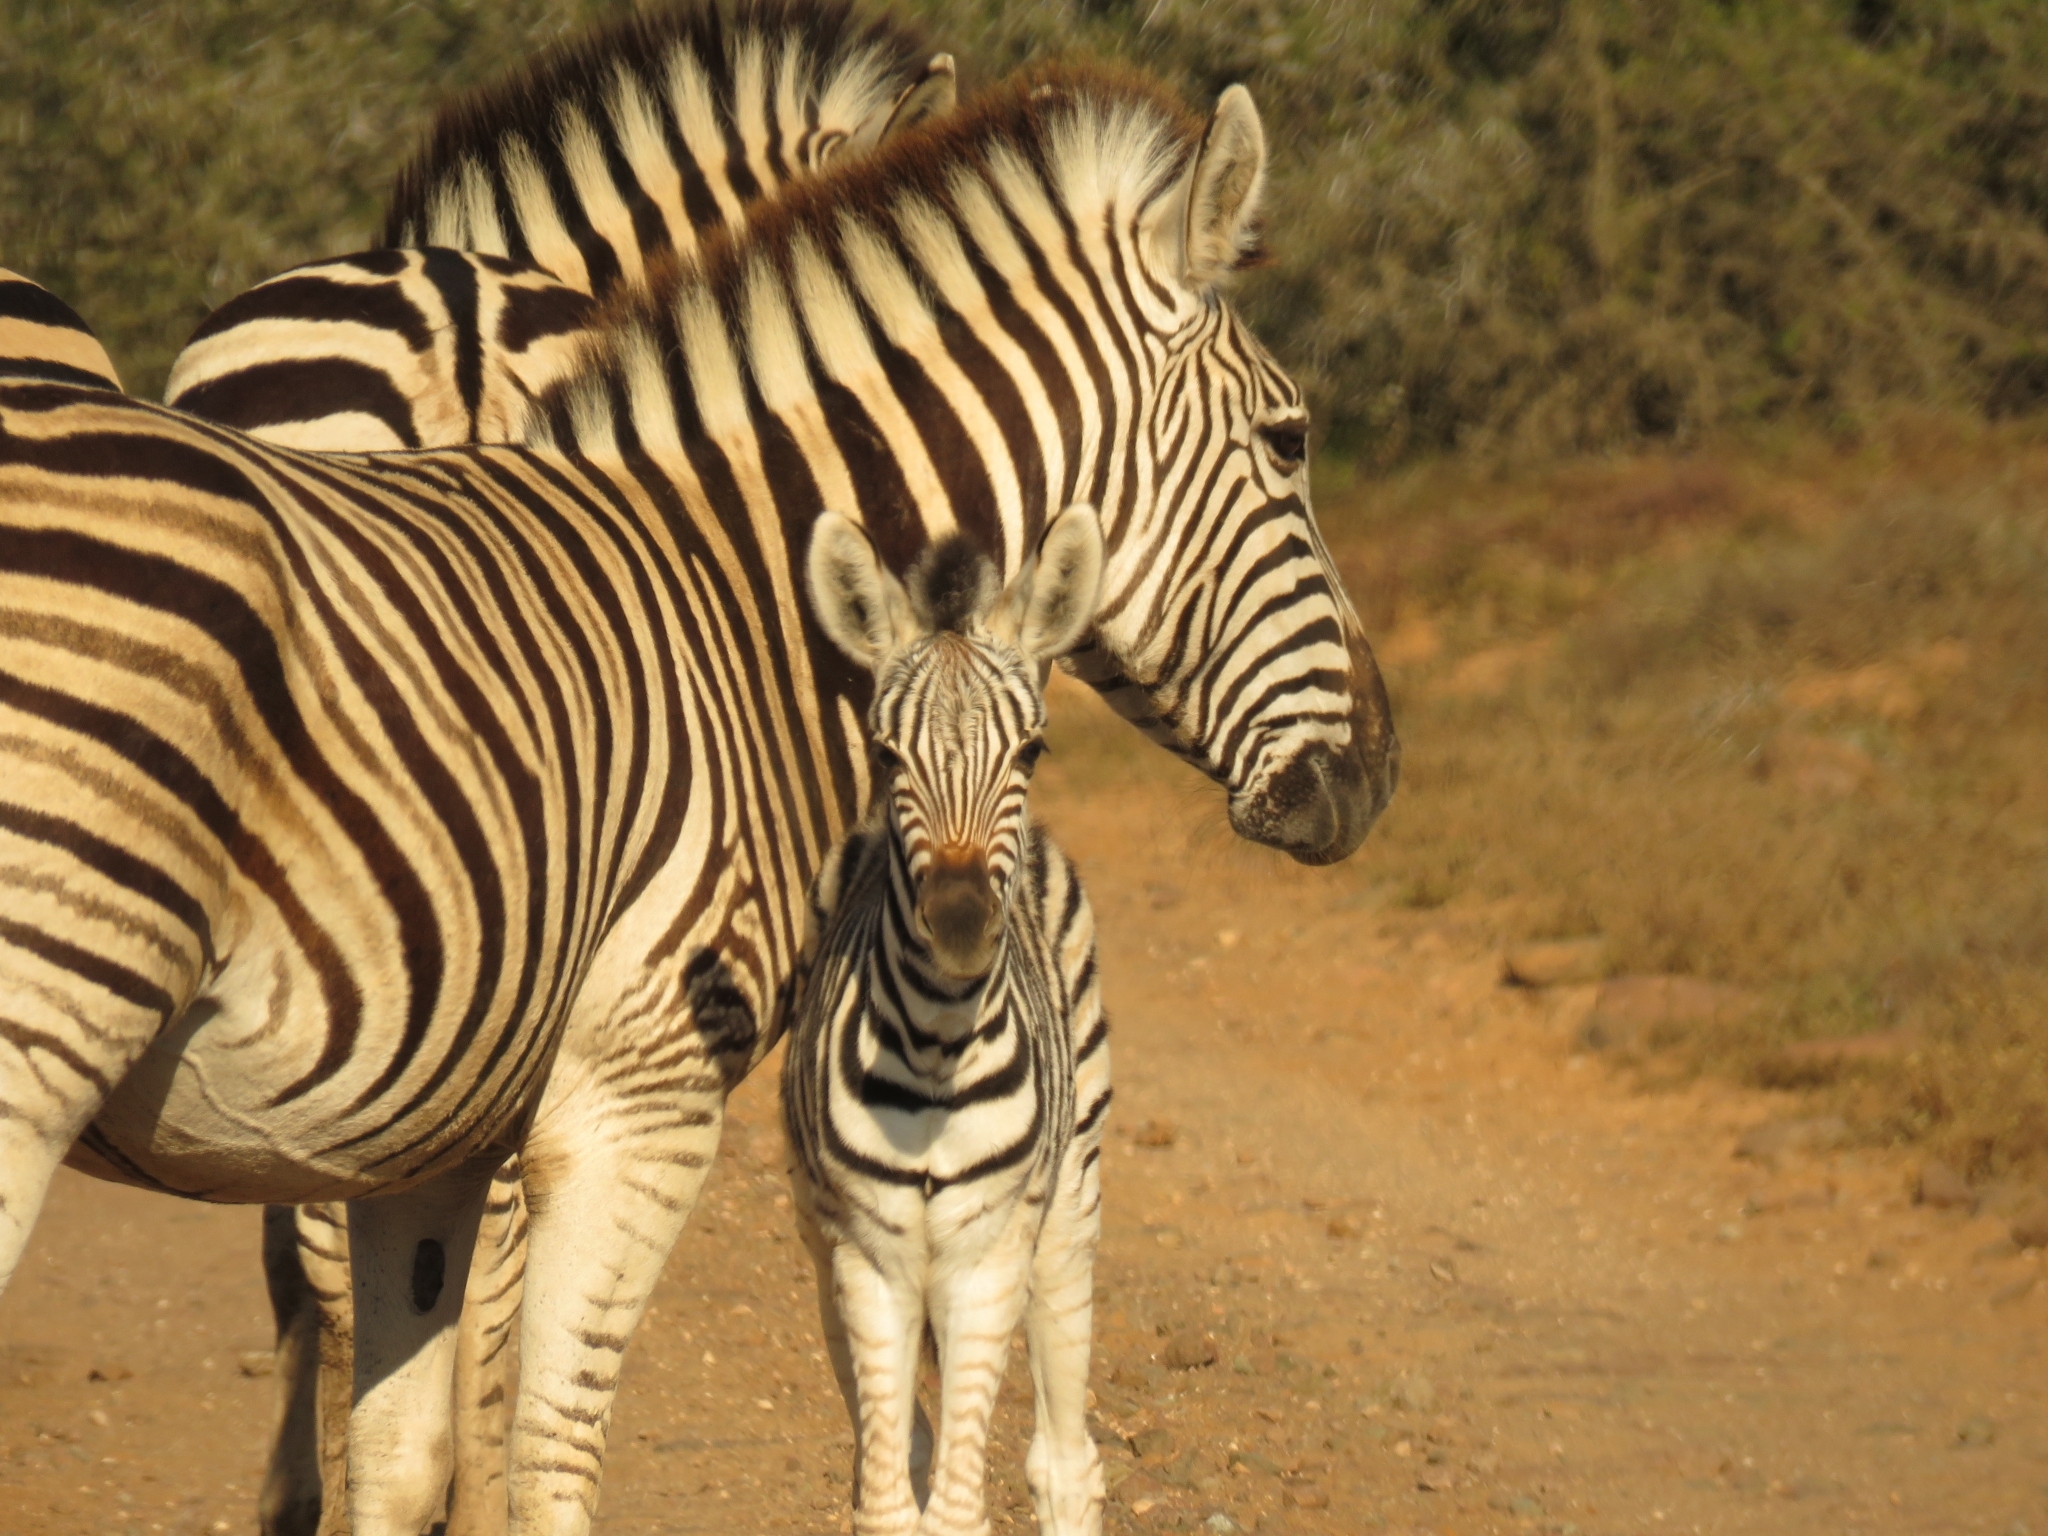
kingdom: Animalia
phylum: Chordata
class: Mammalia
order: Perissodactyla
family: Equidae
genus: Equus
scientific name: Equus quagga
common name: Plains zebra
